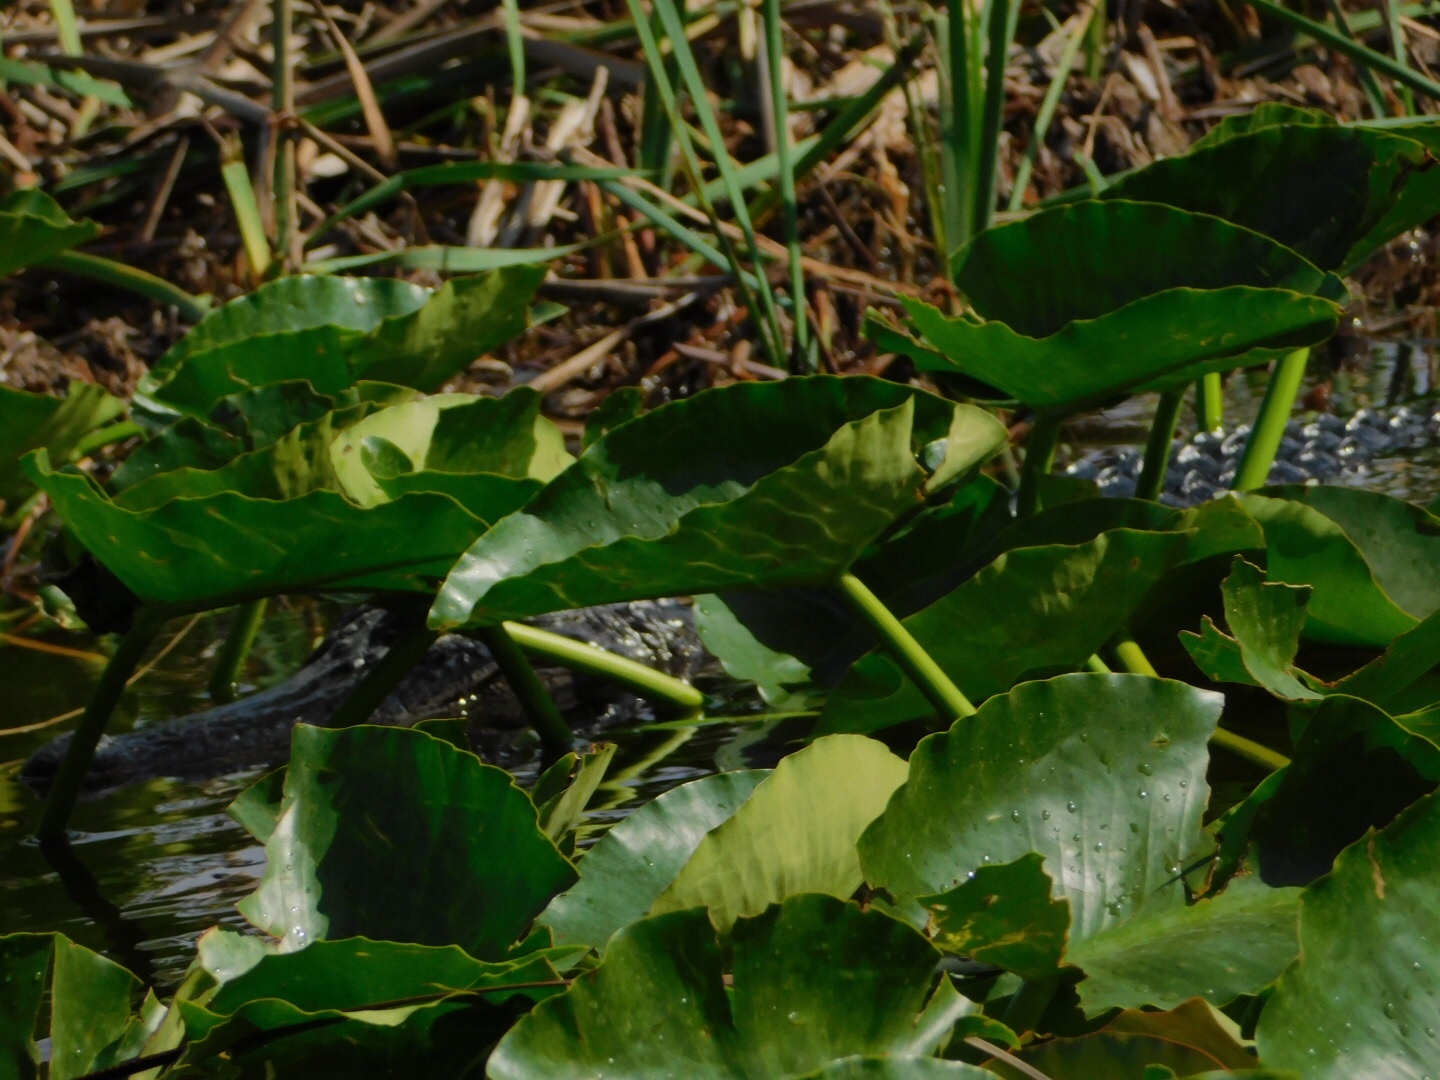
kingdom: Animalia
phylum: Chordata
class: Crocodylia
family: Alligatoridae
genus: Alligator
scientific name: Alligator mississippiensis
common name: American alligator
